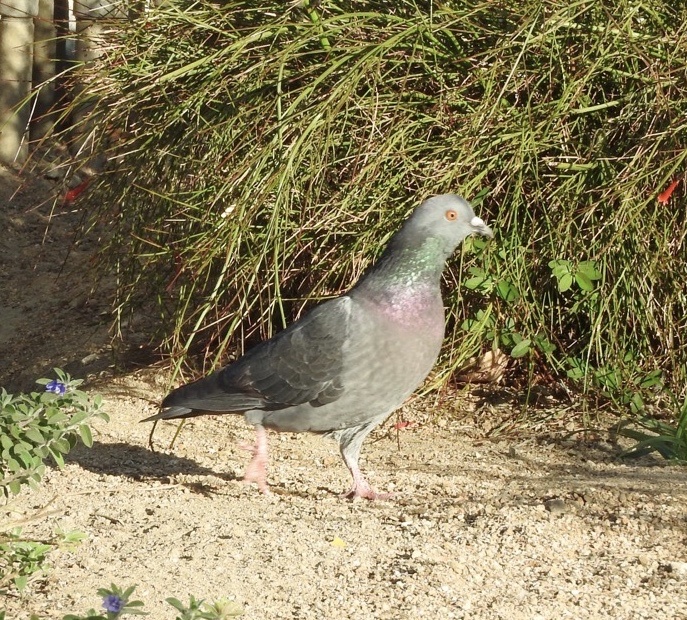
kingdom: Animalia
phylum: Chordata
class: Aves
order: Columbiformes
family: Columbidae
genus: Columba
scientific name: Columba livia
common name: Rock pigeon
